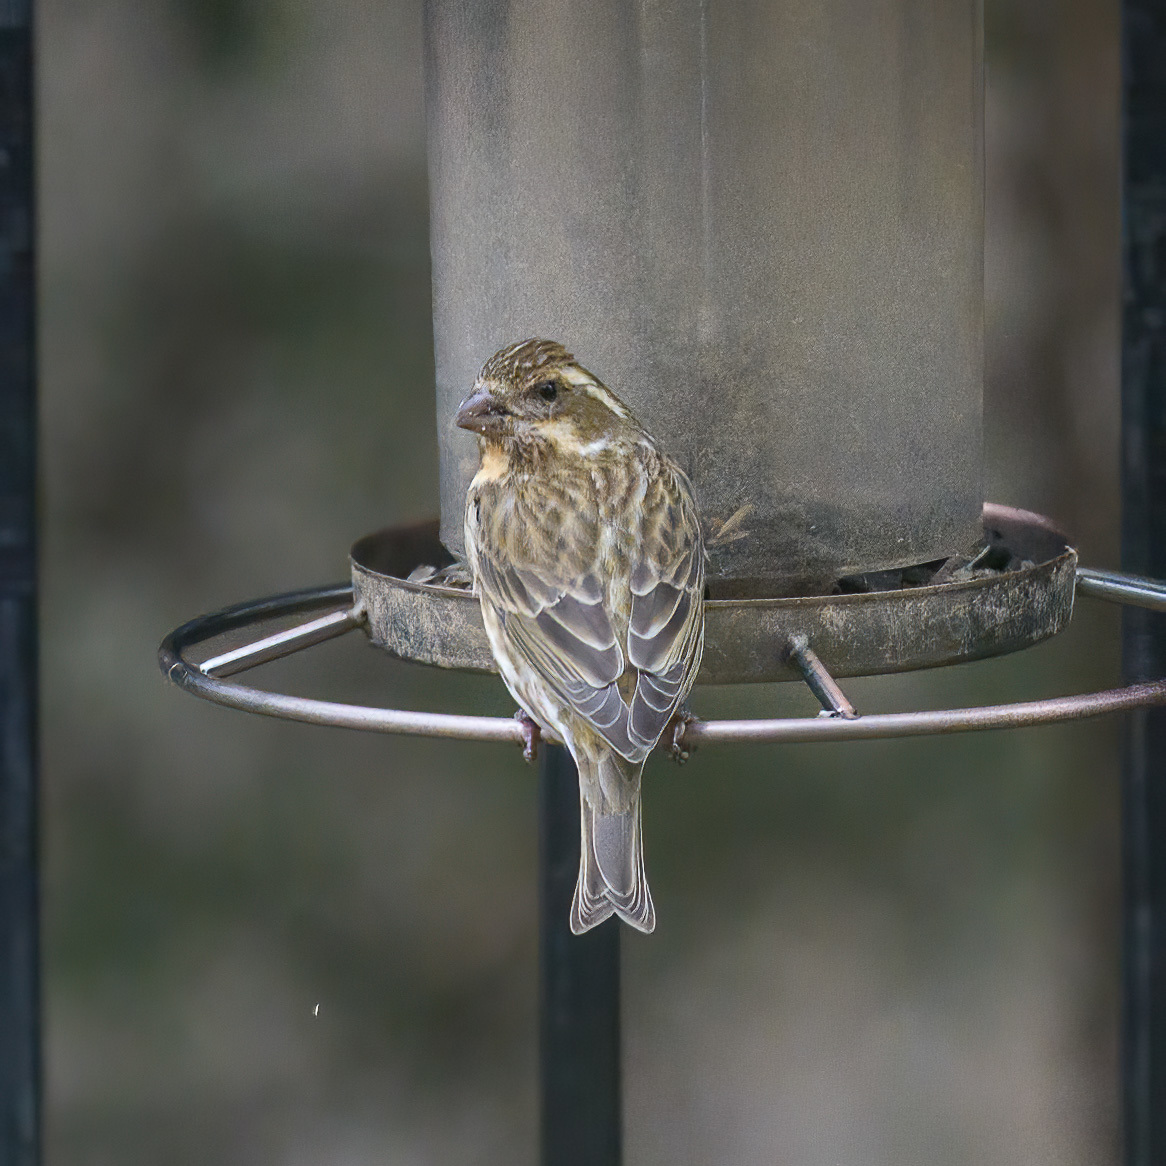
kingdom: Animalia
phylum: Chordata
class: Aves
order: Passeriformes
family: Fringillidae
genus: Haemorhous
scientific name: Haemorhous purpureus
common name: Purple finch
